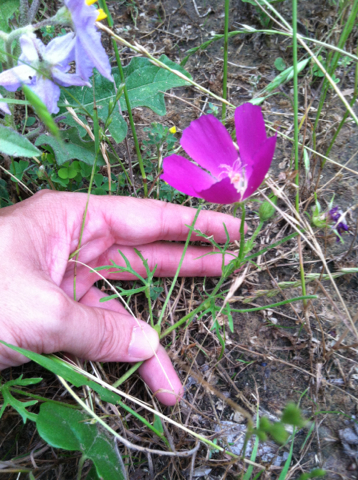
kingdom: Plantae
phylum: Tracheophyta
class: Magnoliopsida
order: Malvales
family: Malvaceae
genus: Callirhoe
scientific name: Callirhoe involucrata
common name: Purple poppy-mallow
